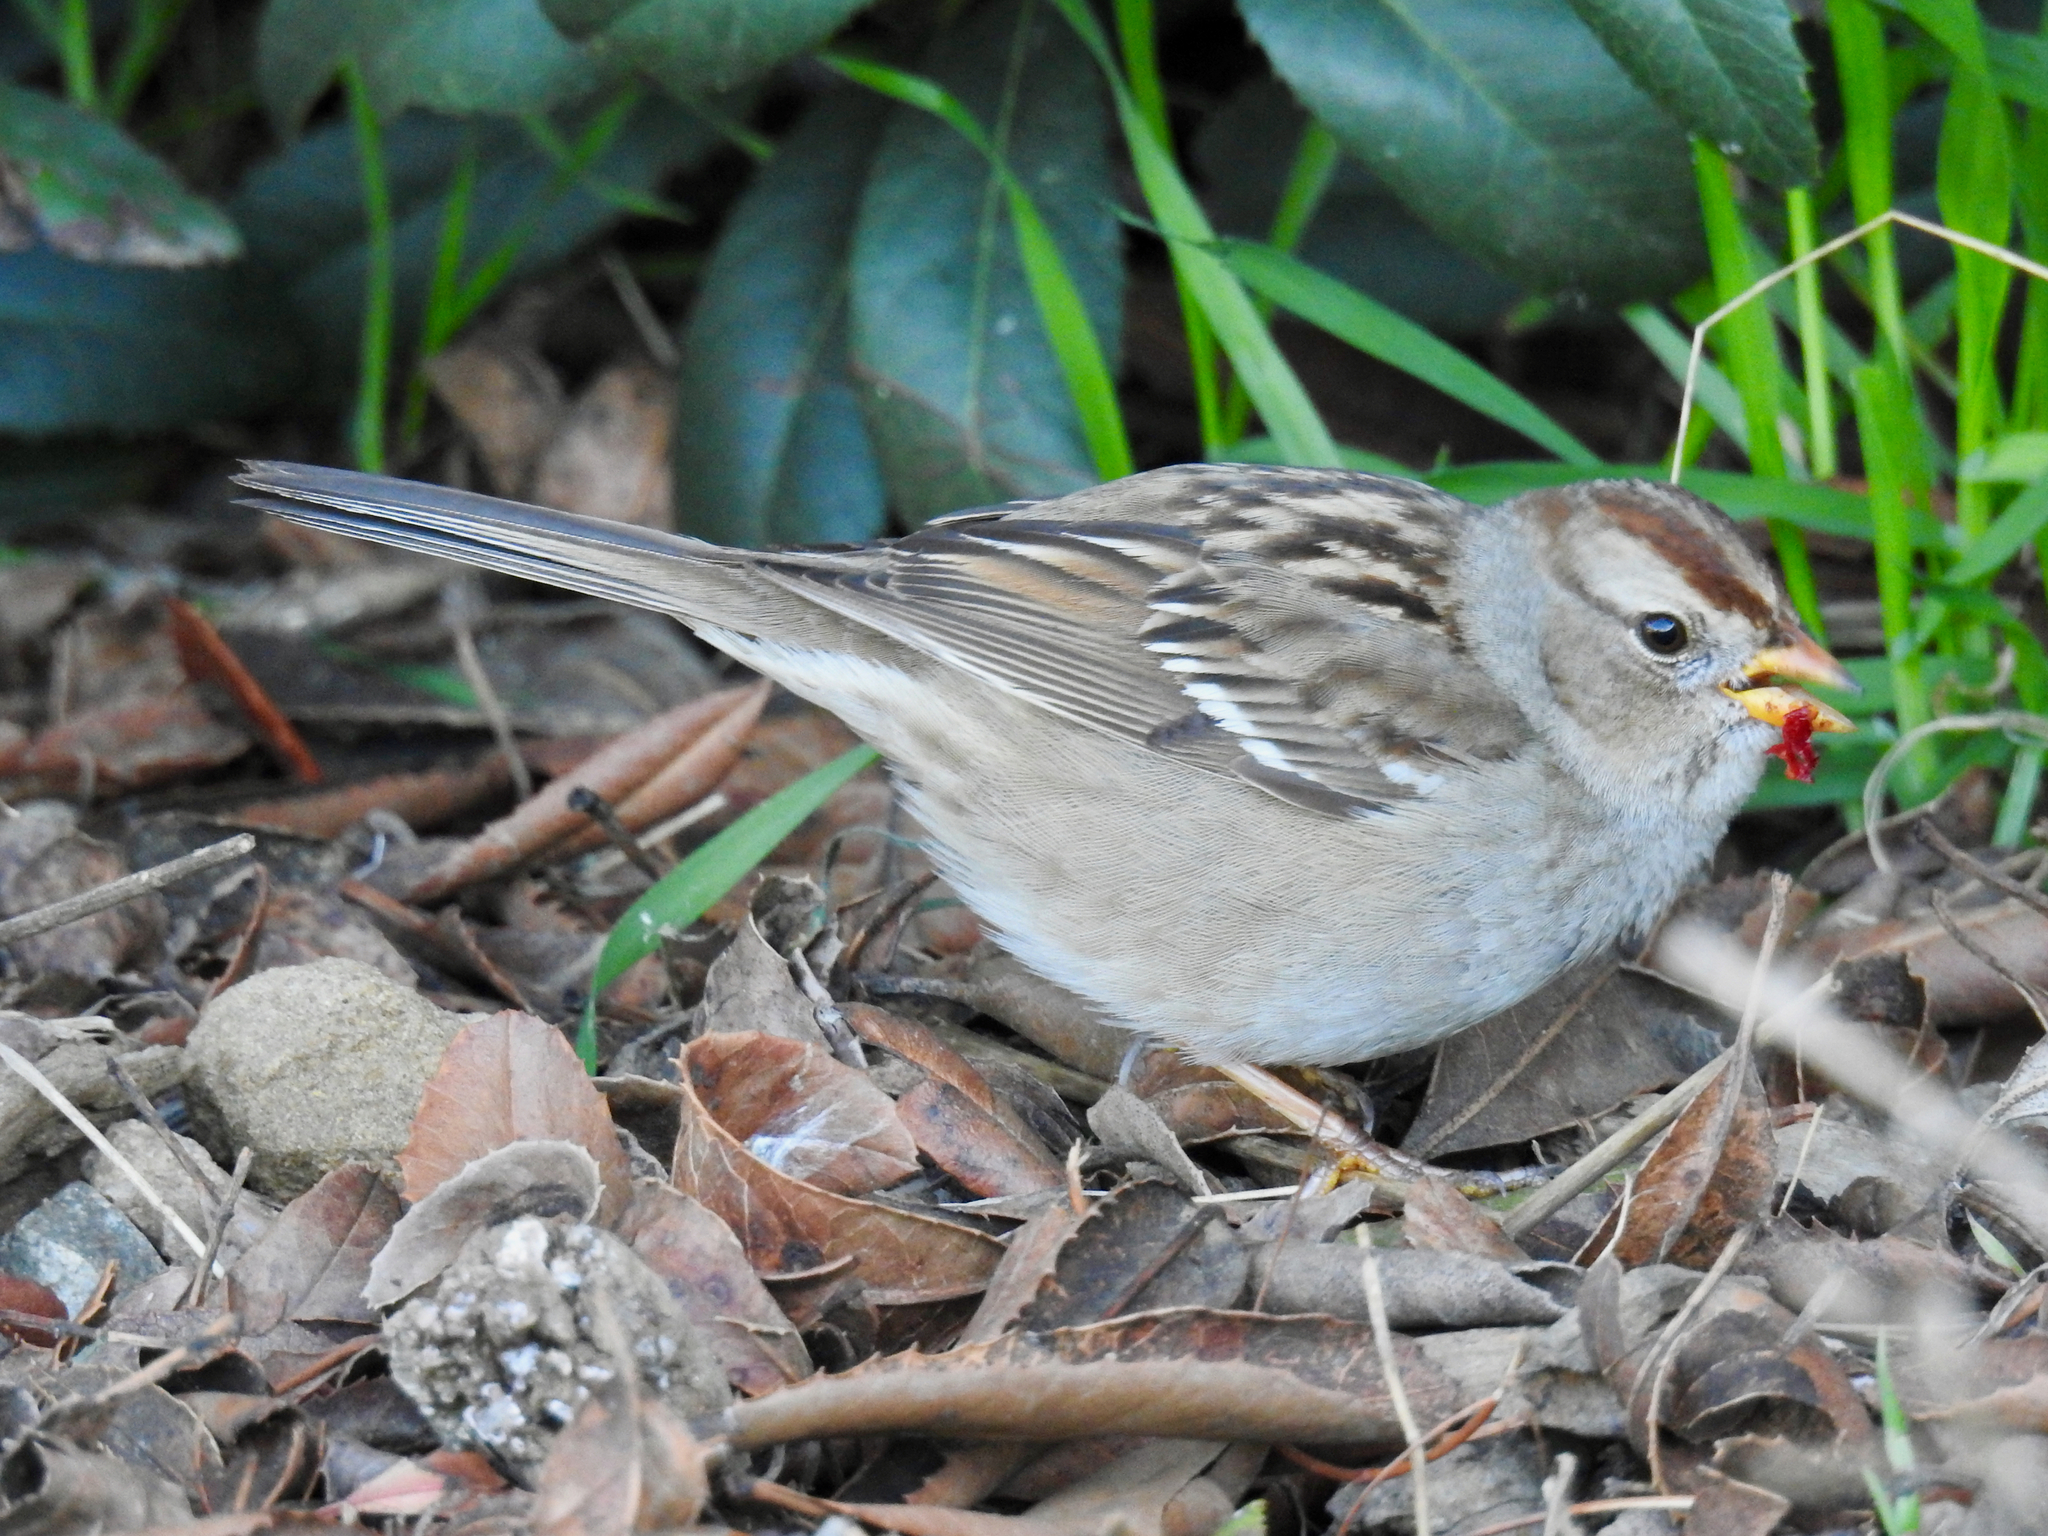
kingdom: Animalia
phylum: Chordata
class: Aves
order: Passeriformes
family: Passerellidae
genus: Zonotrichia
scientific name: Zonotrichia leucophrys
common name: White-crowned sparrow
